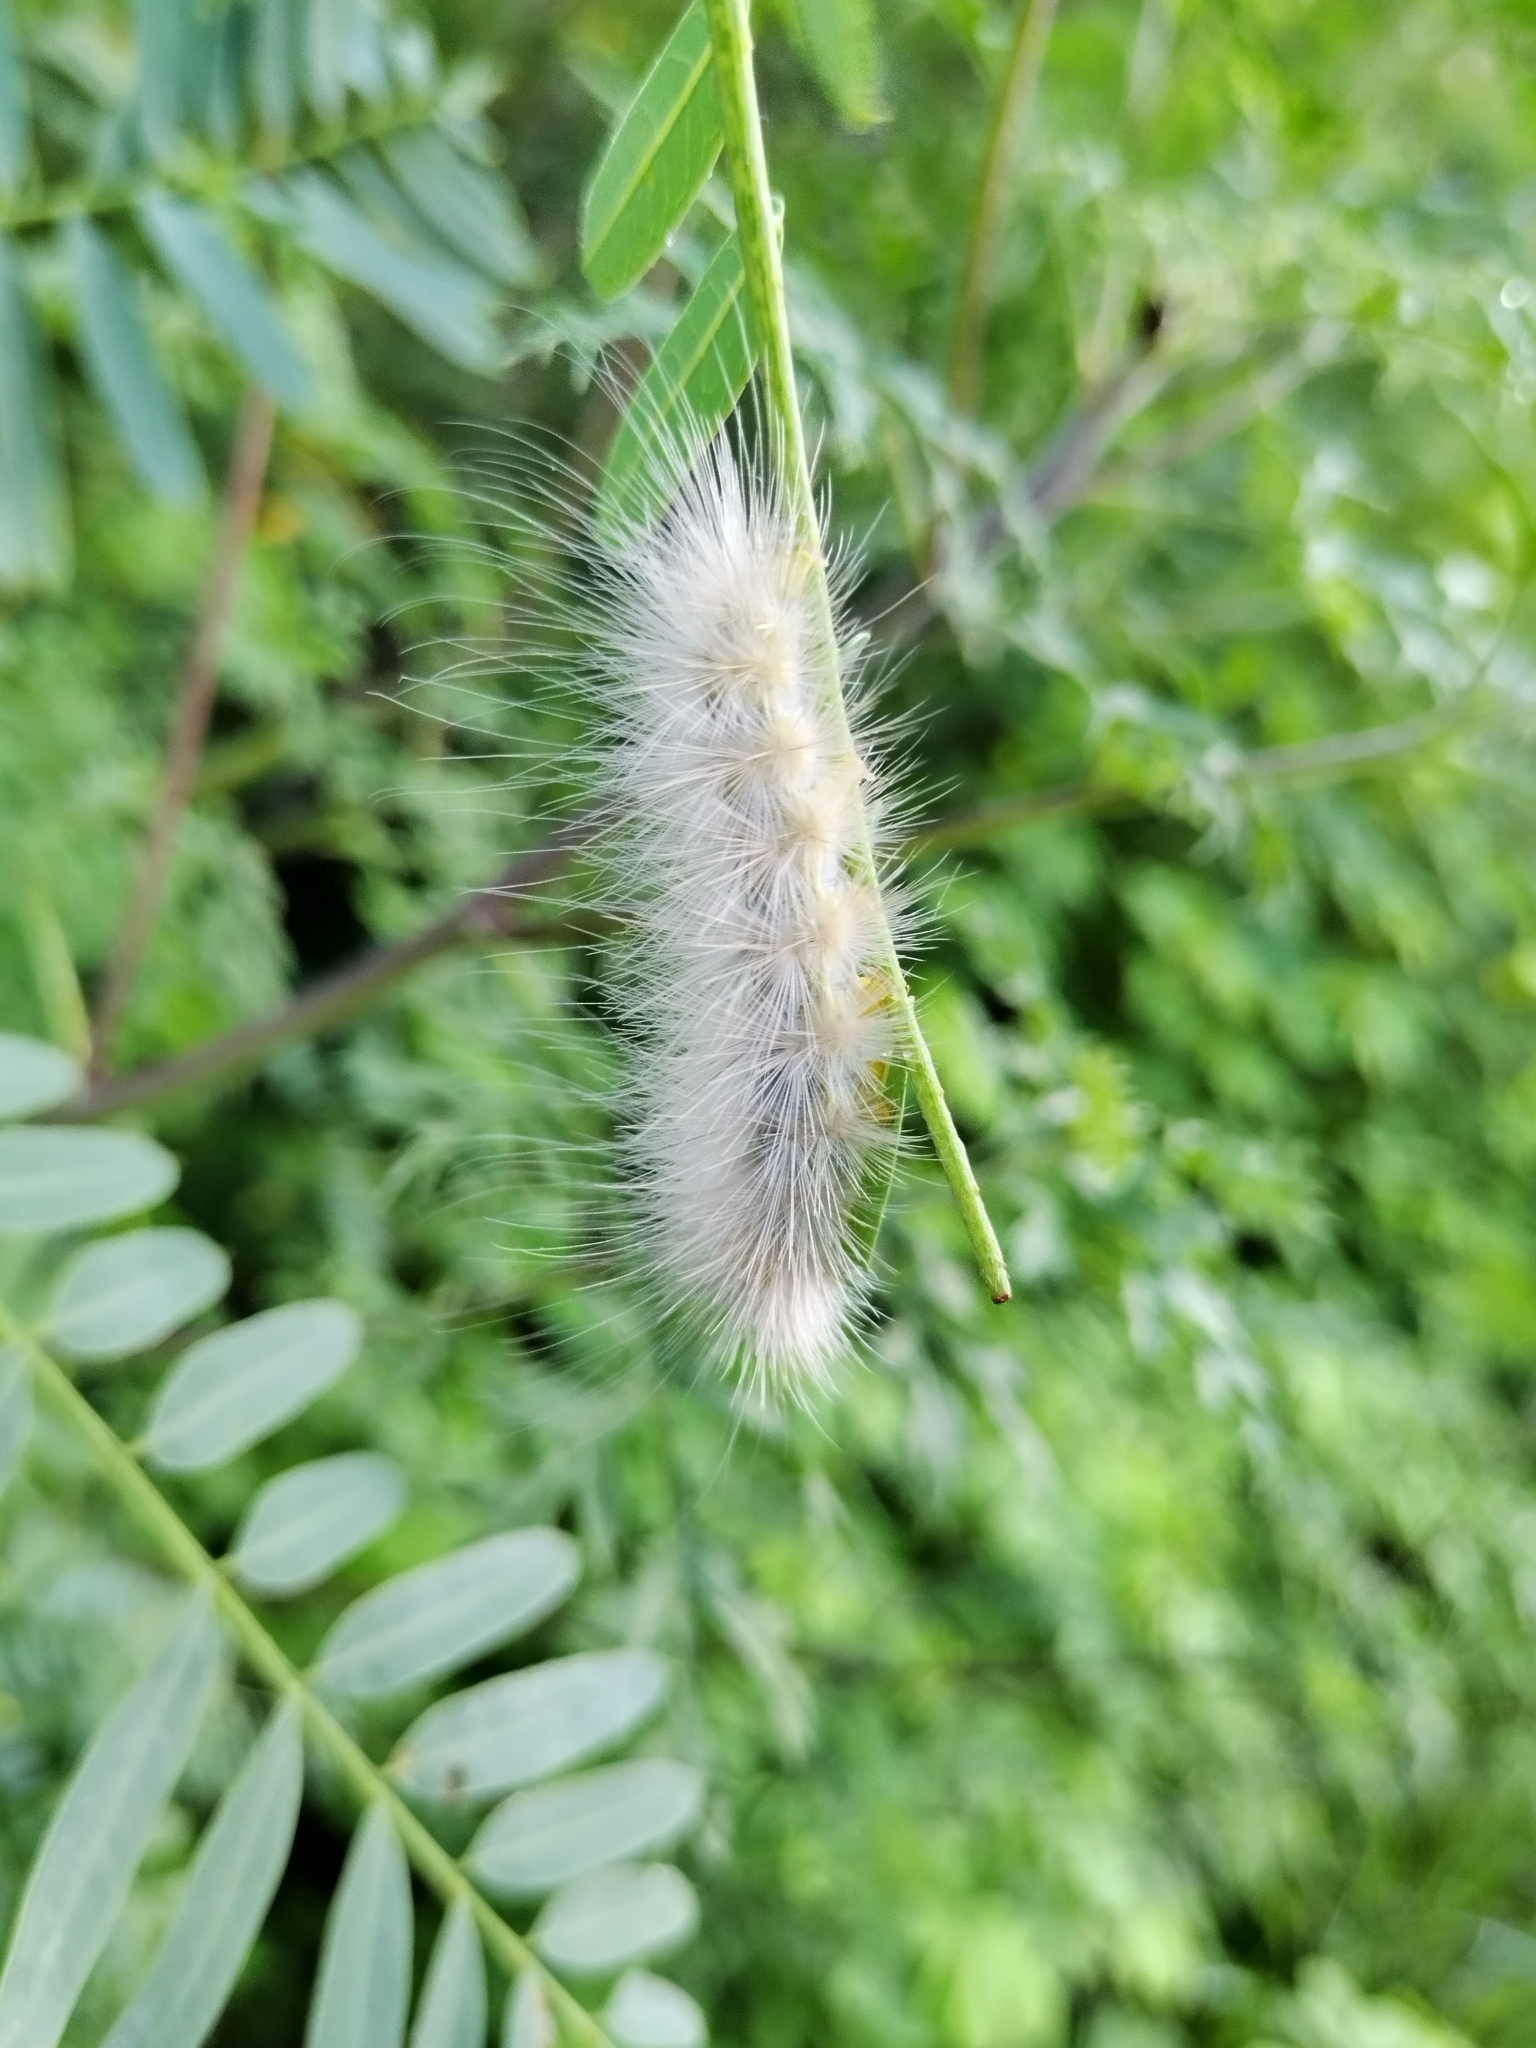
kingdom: Animalia
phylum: Arthropoda
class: Insecta
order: Lepidoptera
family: Erebidae
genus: Spilosoma
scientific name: Spilosoma virginica
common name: Virginia tiger moth
